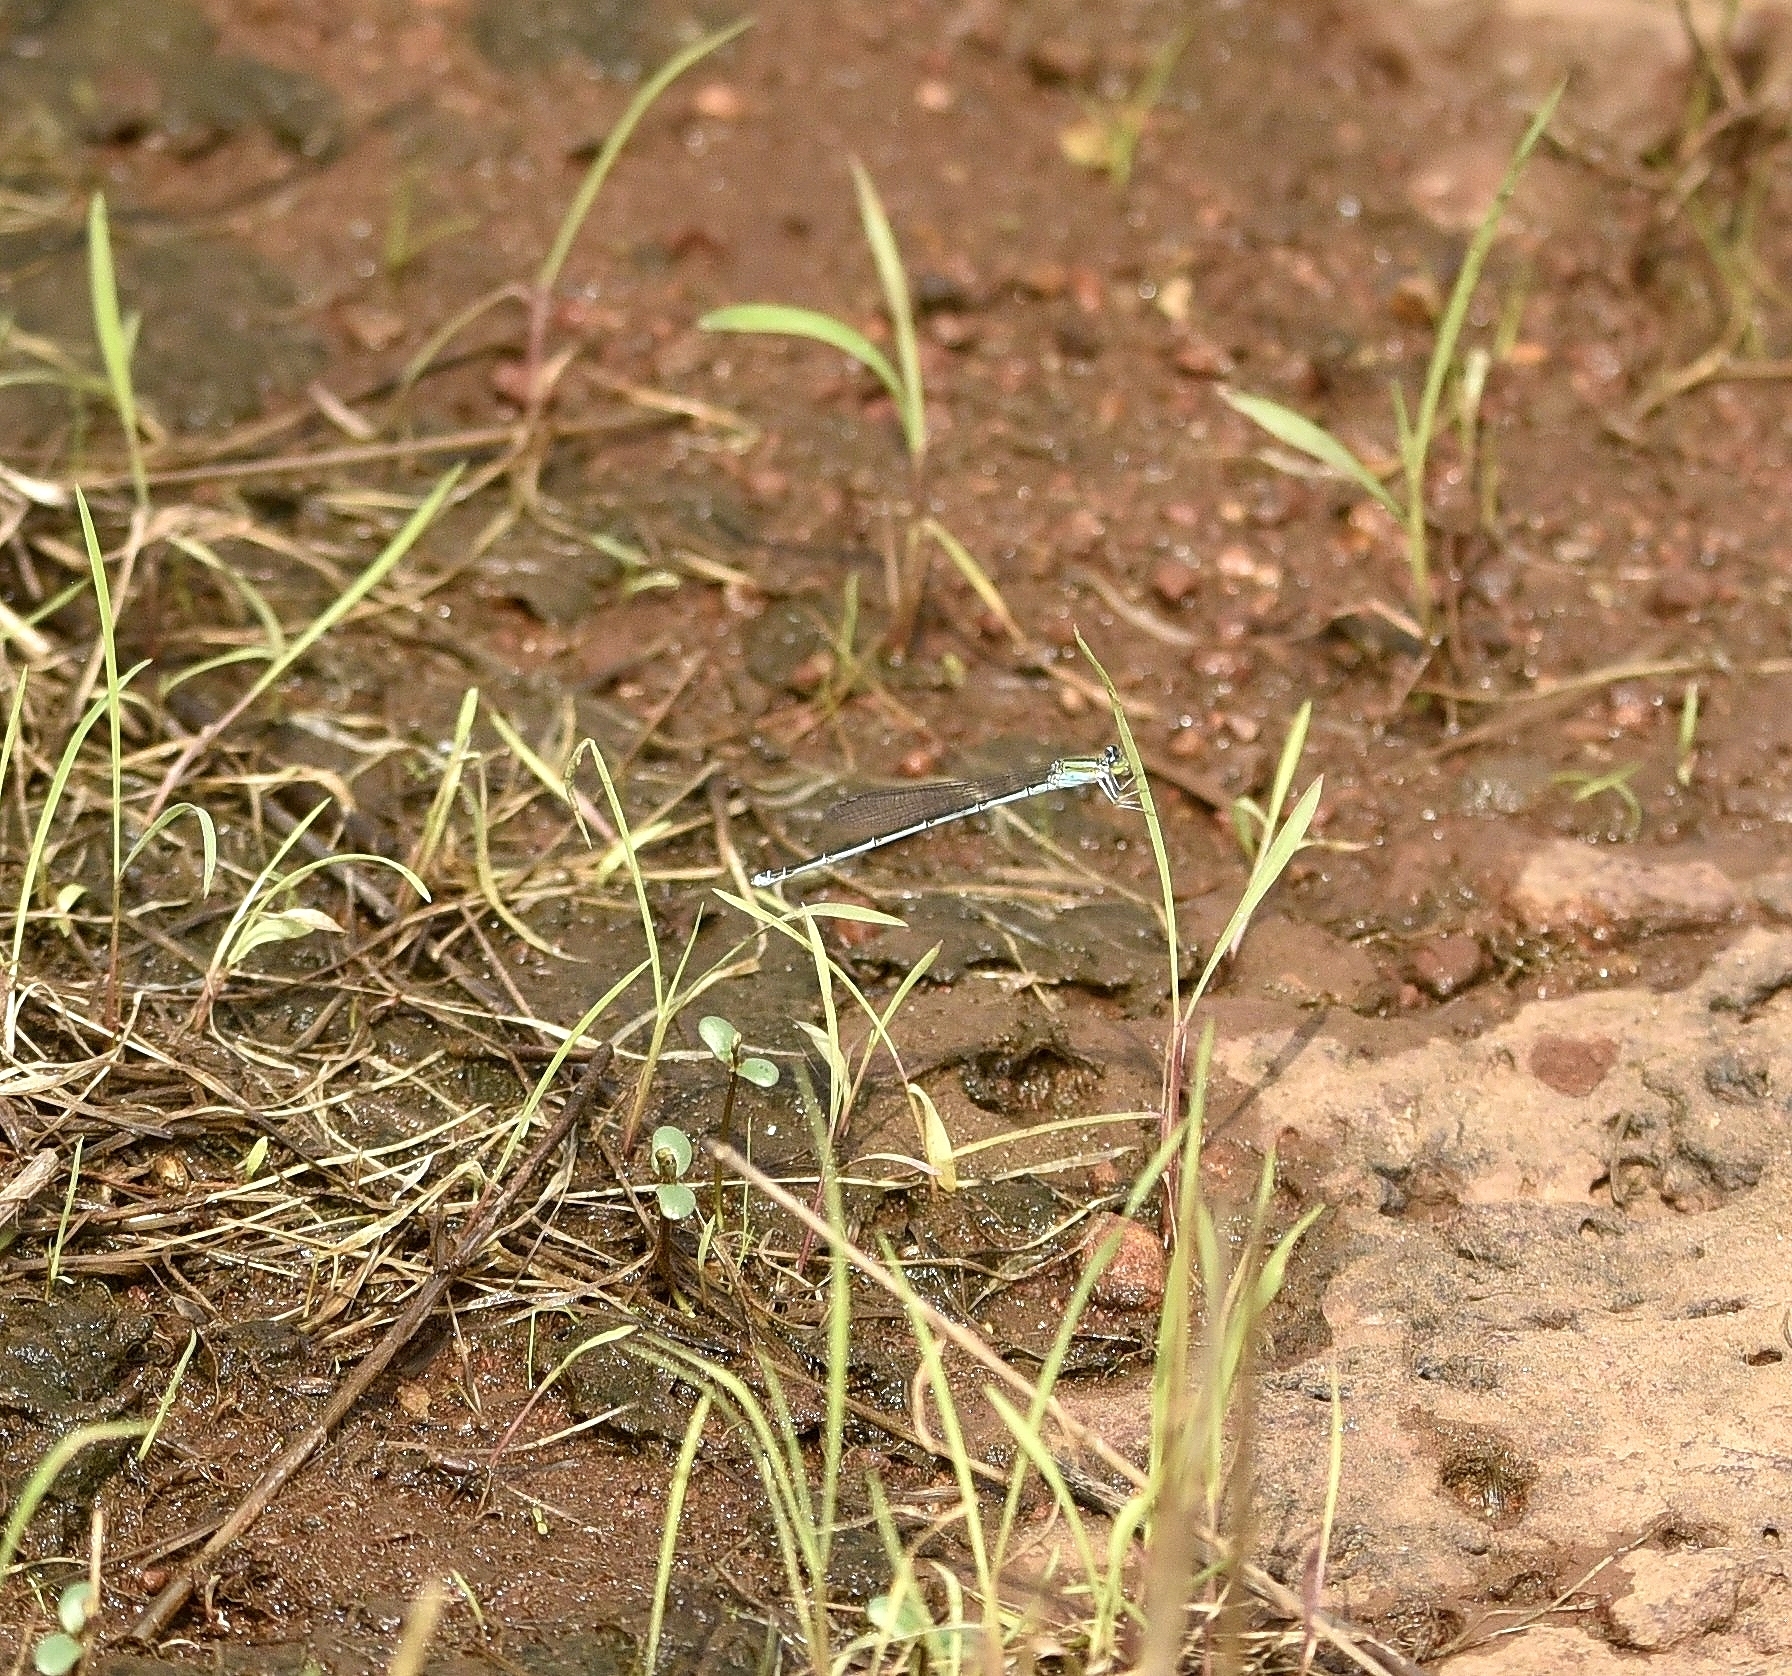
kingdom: Animalia
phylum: Arthropoda
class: Insecta
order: Odonata
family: Coenagrionidae
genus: Pseudagrion
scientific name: Pseudagrion malabaricum
